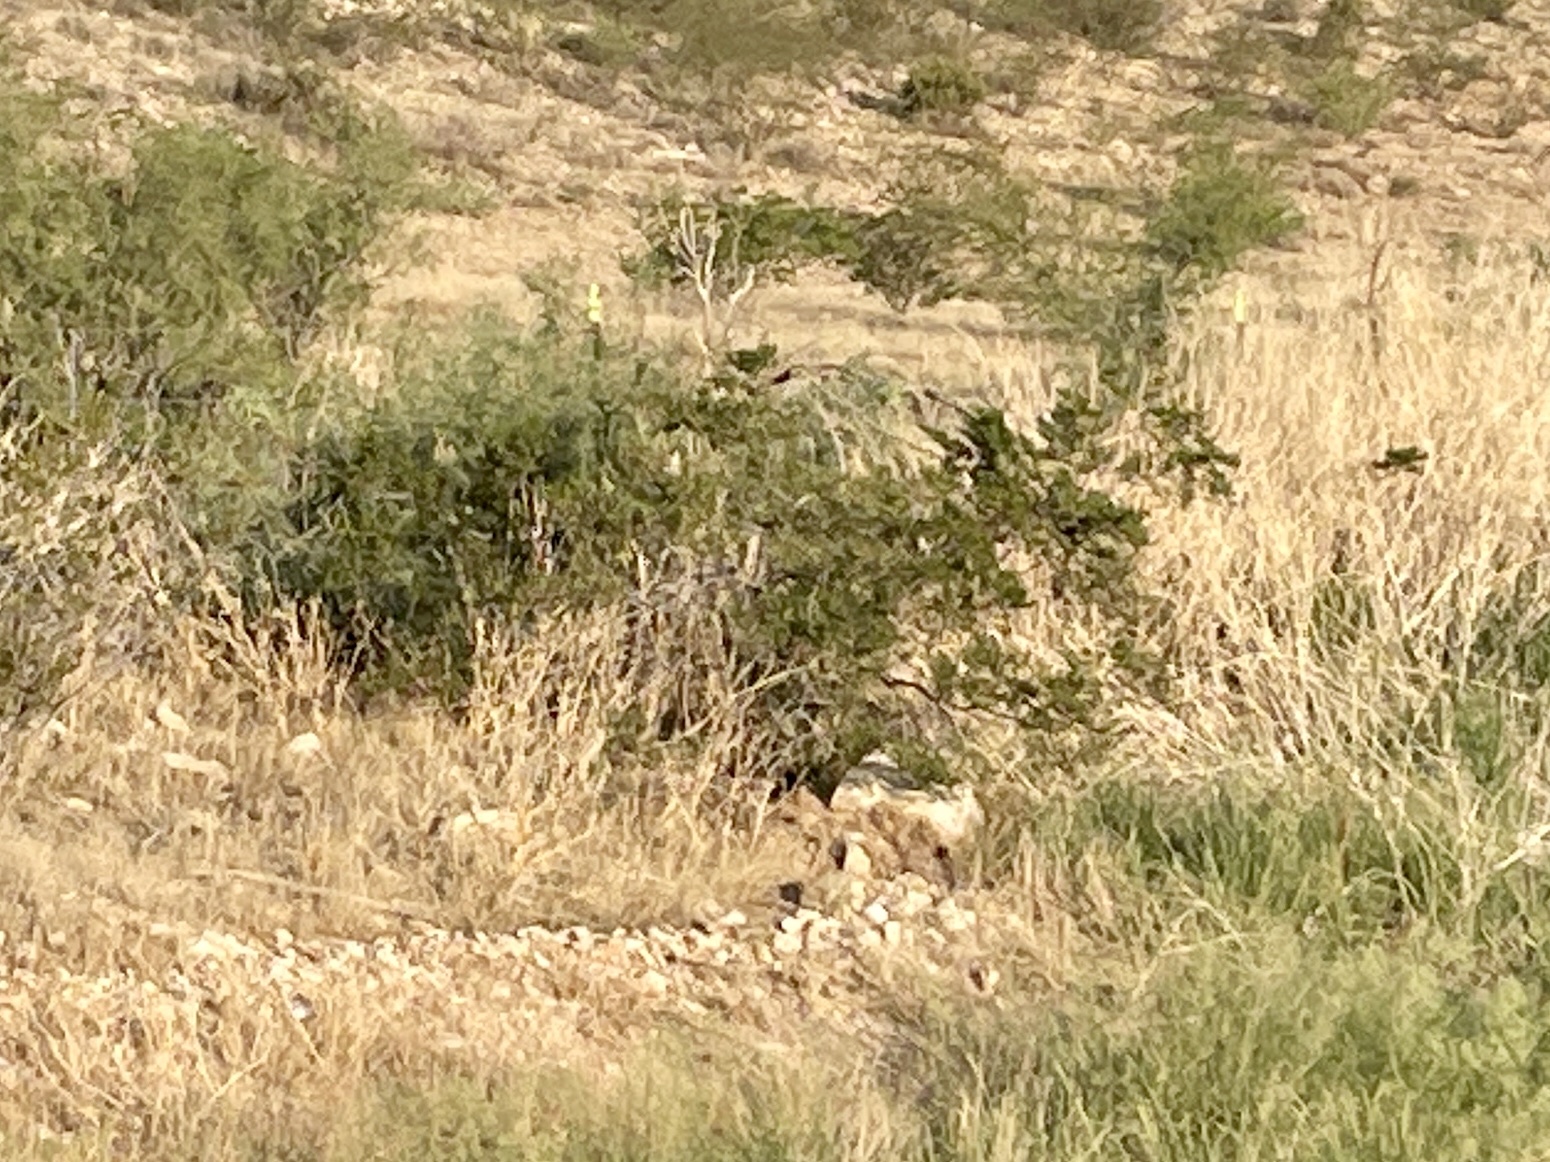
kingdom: Plantae
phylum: Tracheophyta
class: Magnoliopsida
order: Zygophyllales
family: Zygophyllaceae
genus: Larrea
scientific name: Larrea tridentata
